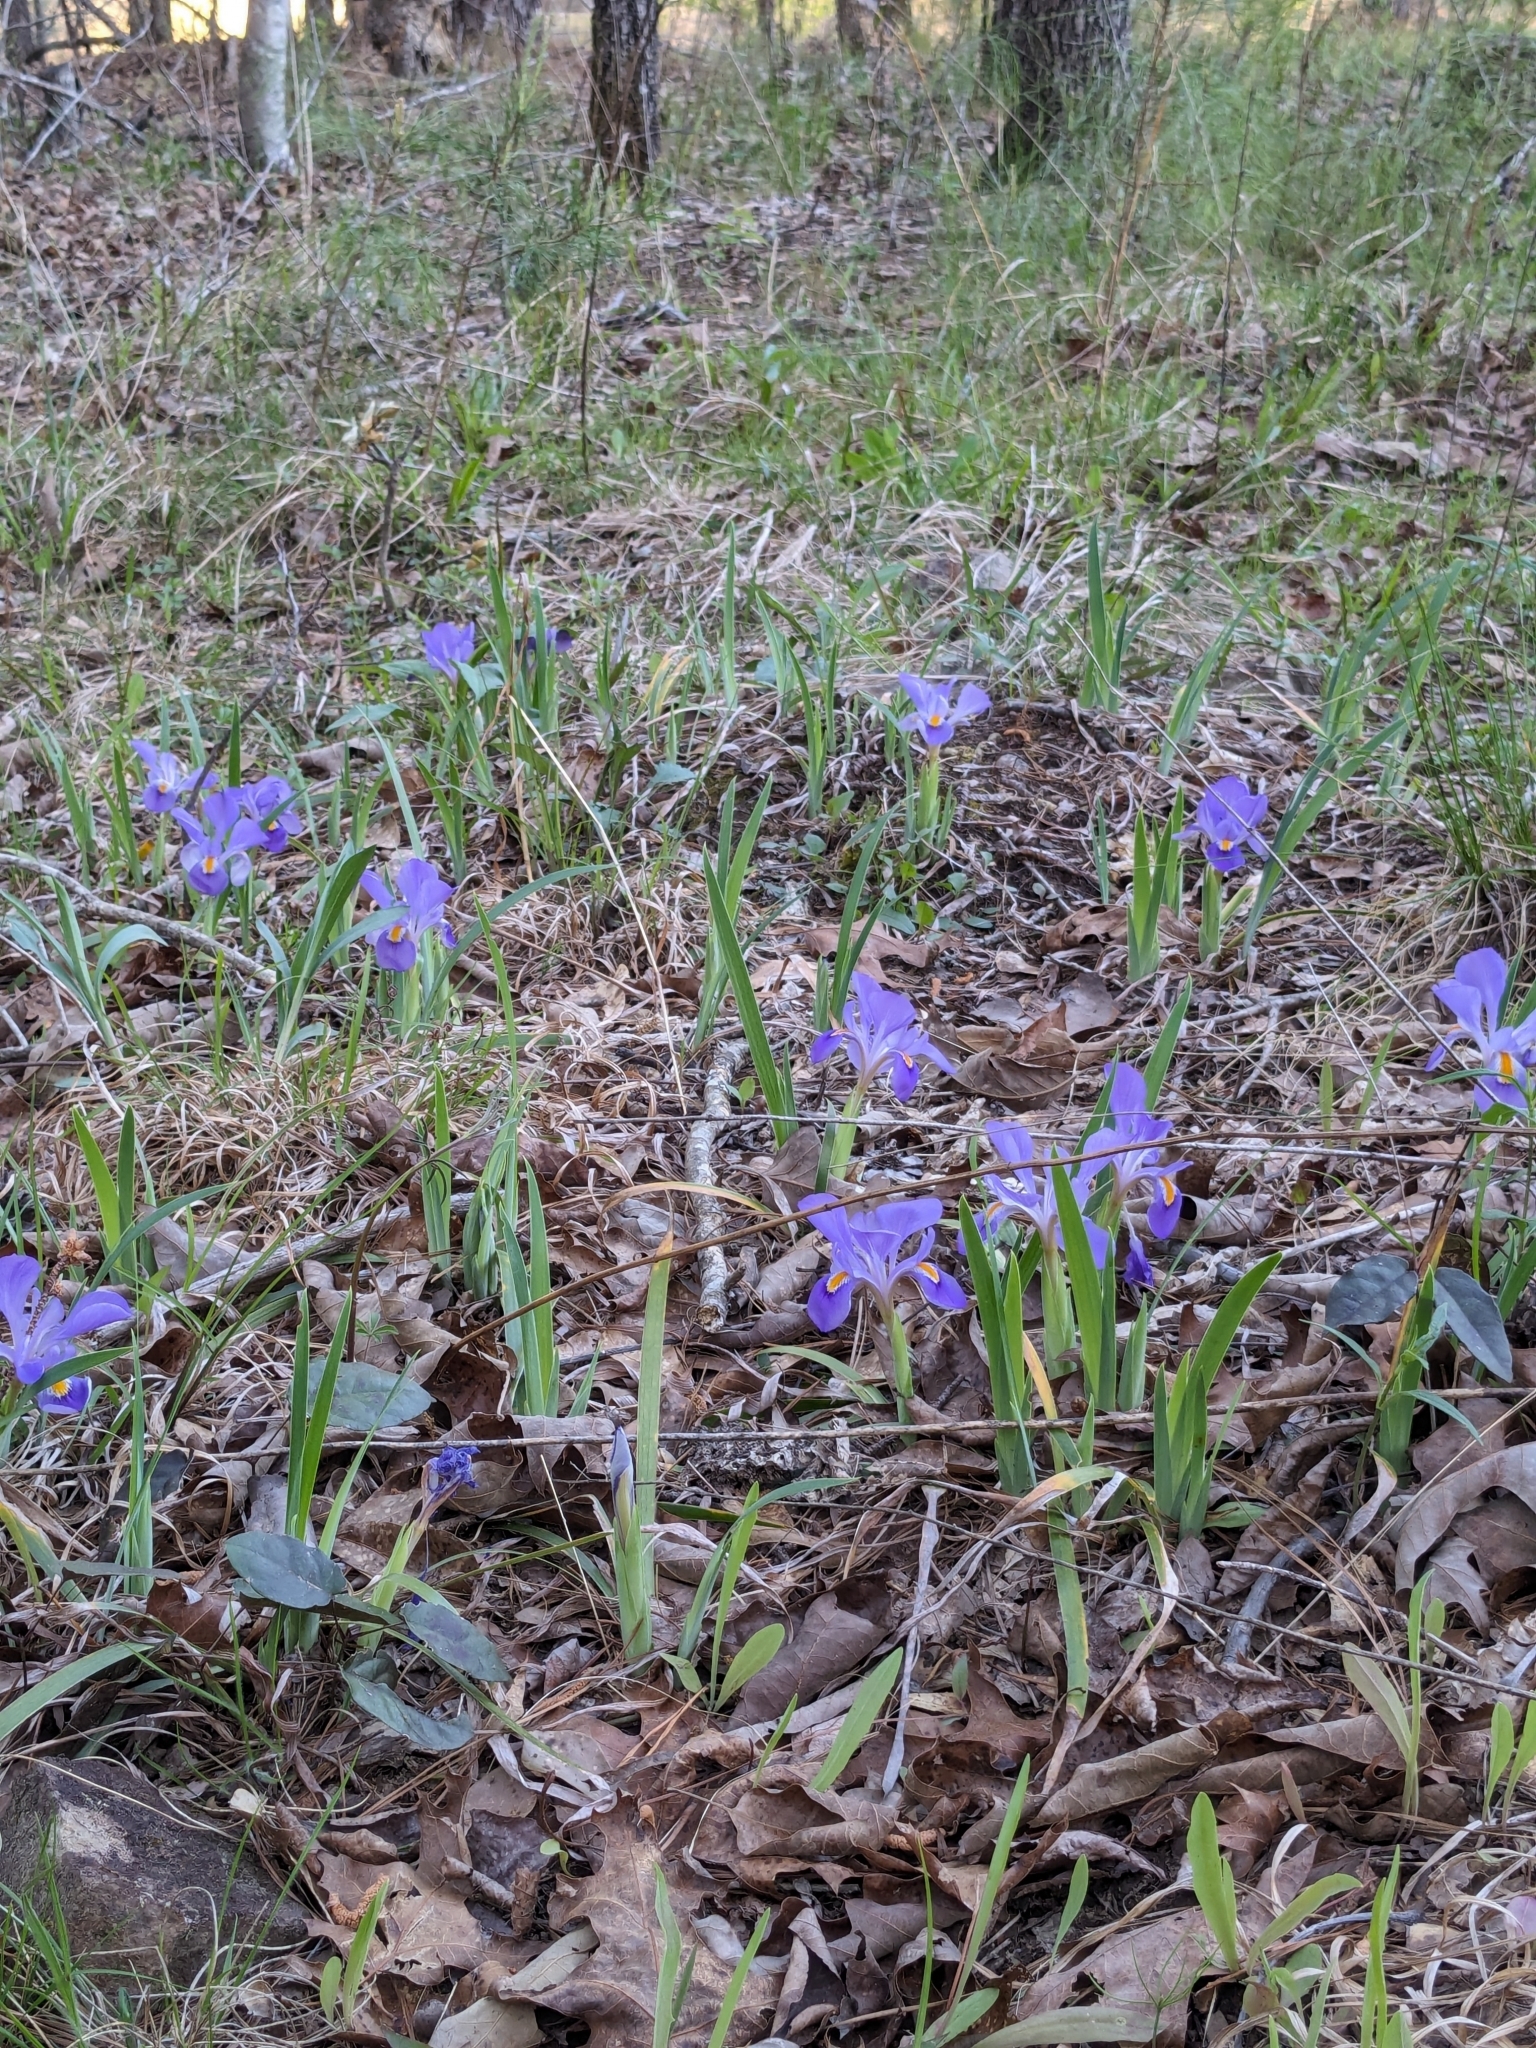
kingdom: Plantae
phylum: Tracheophyta
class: Liliopsida
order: Asparagales
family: Iridaceae
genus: Iris
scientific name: Iris verna
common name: Dwarf iris
